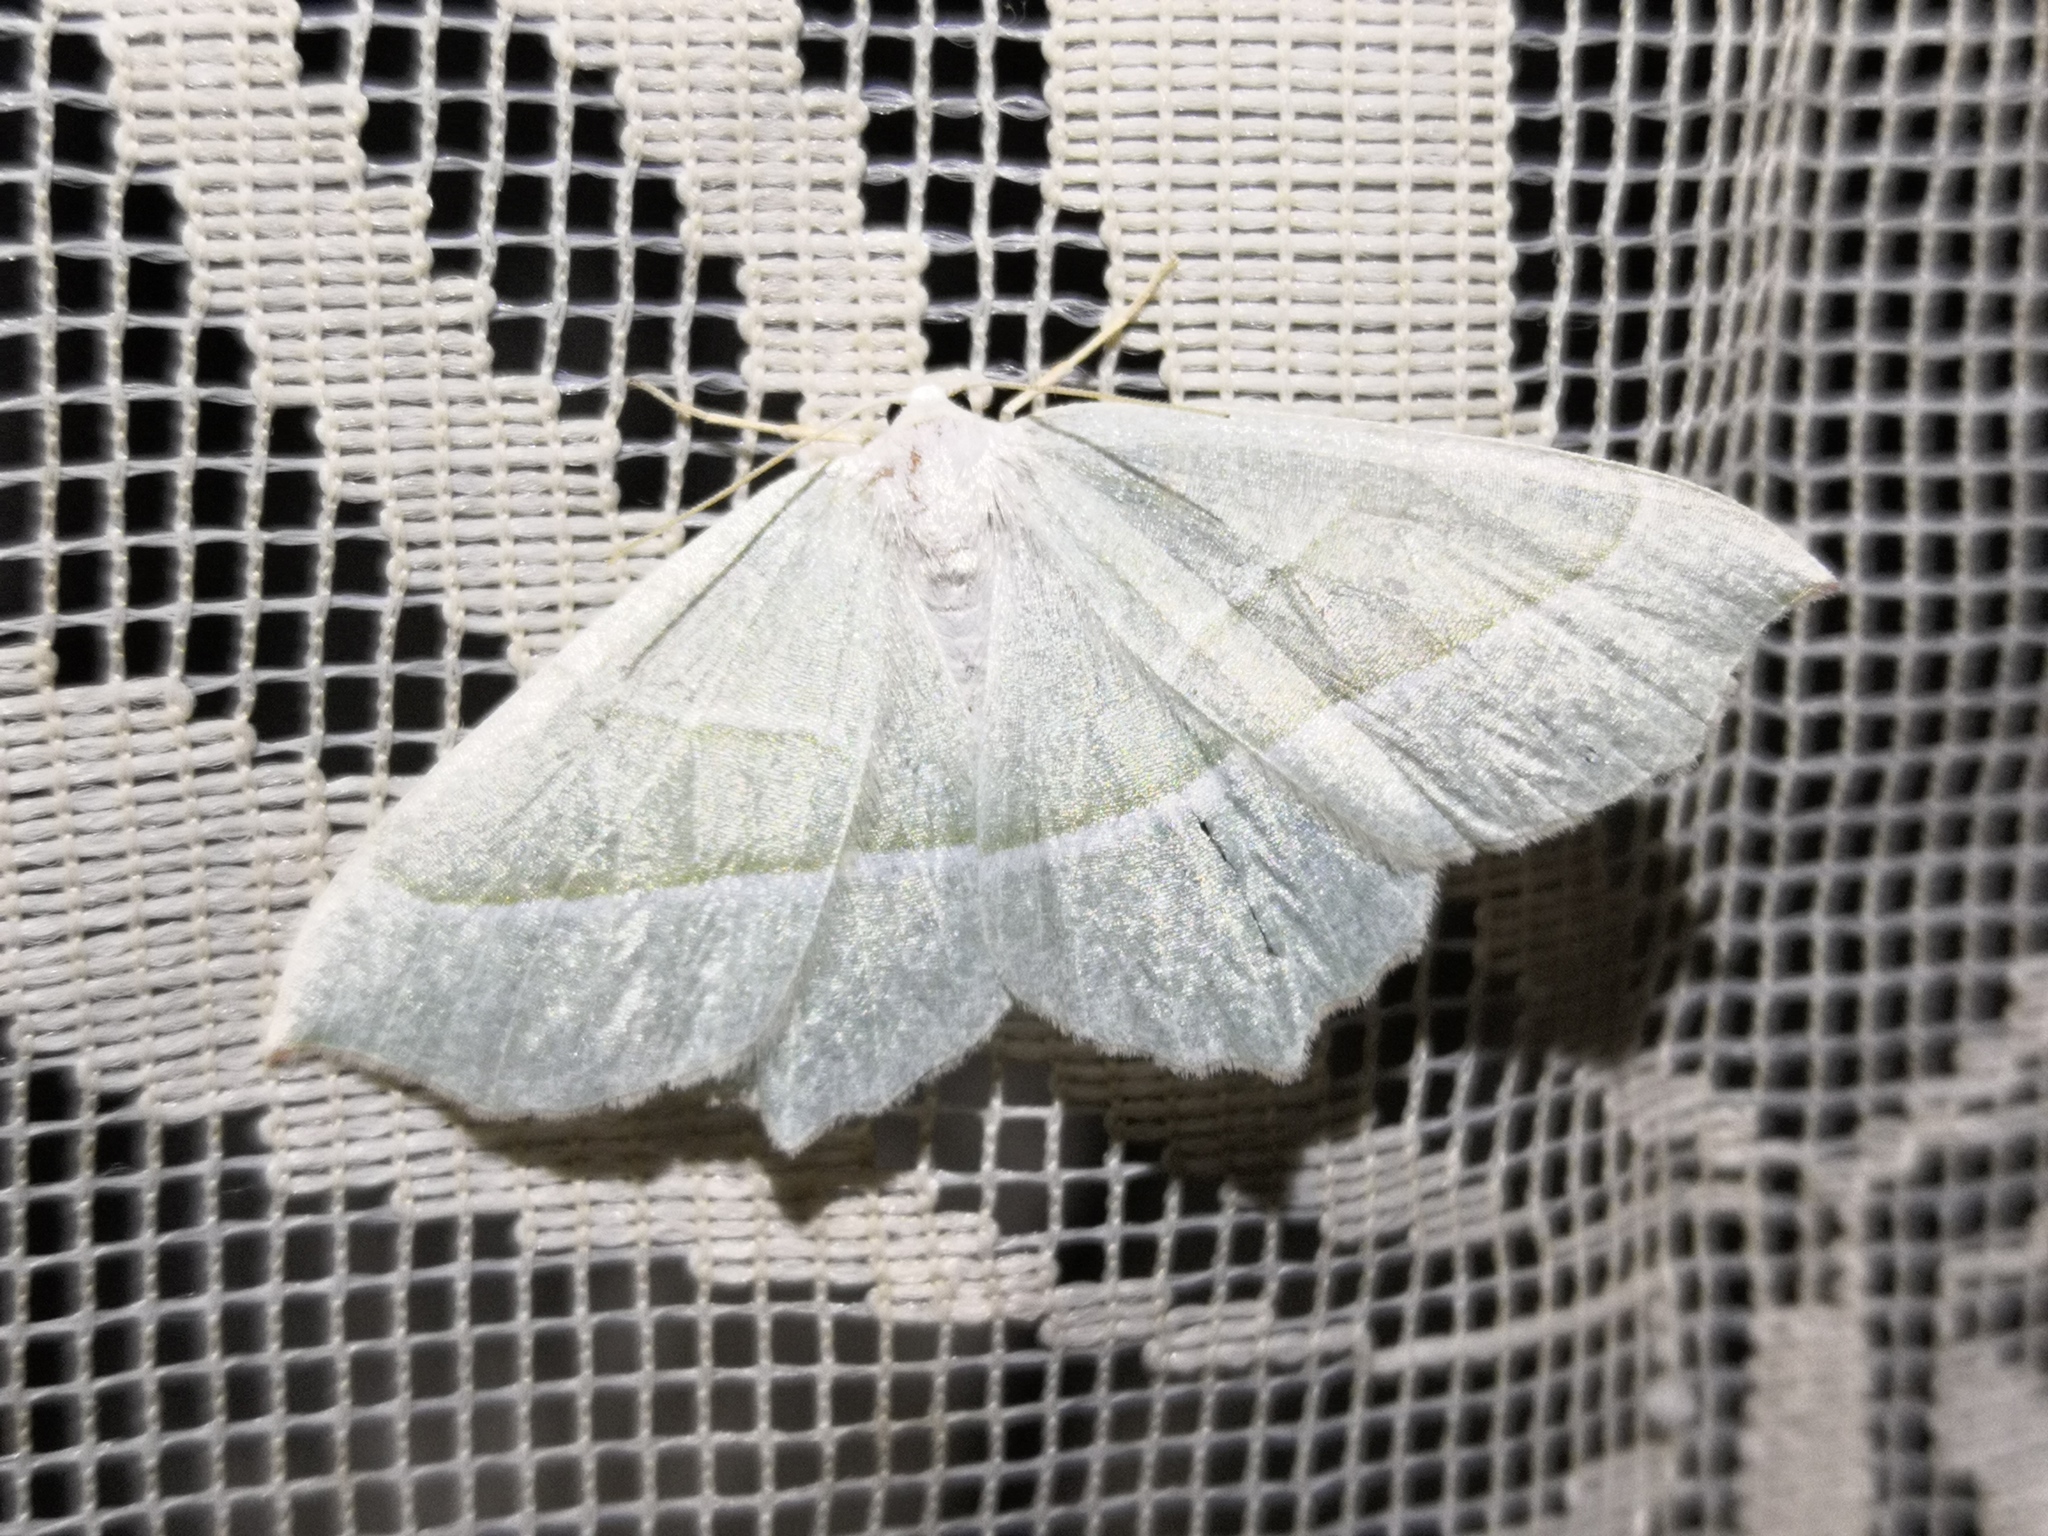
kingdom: Animalia
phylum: Arthropoda
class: Insecta
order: Lepidoptera
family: Geometridae
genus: Campaea
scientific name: Campaea margaritaria
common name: Light emerald
